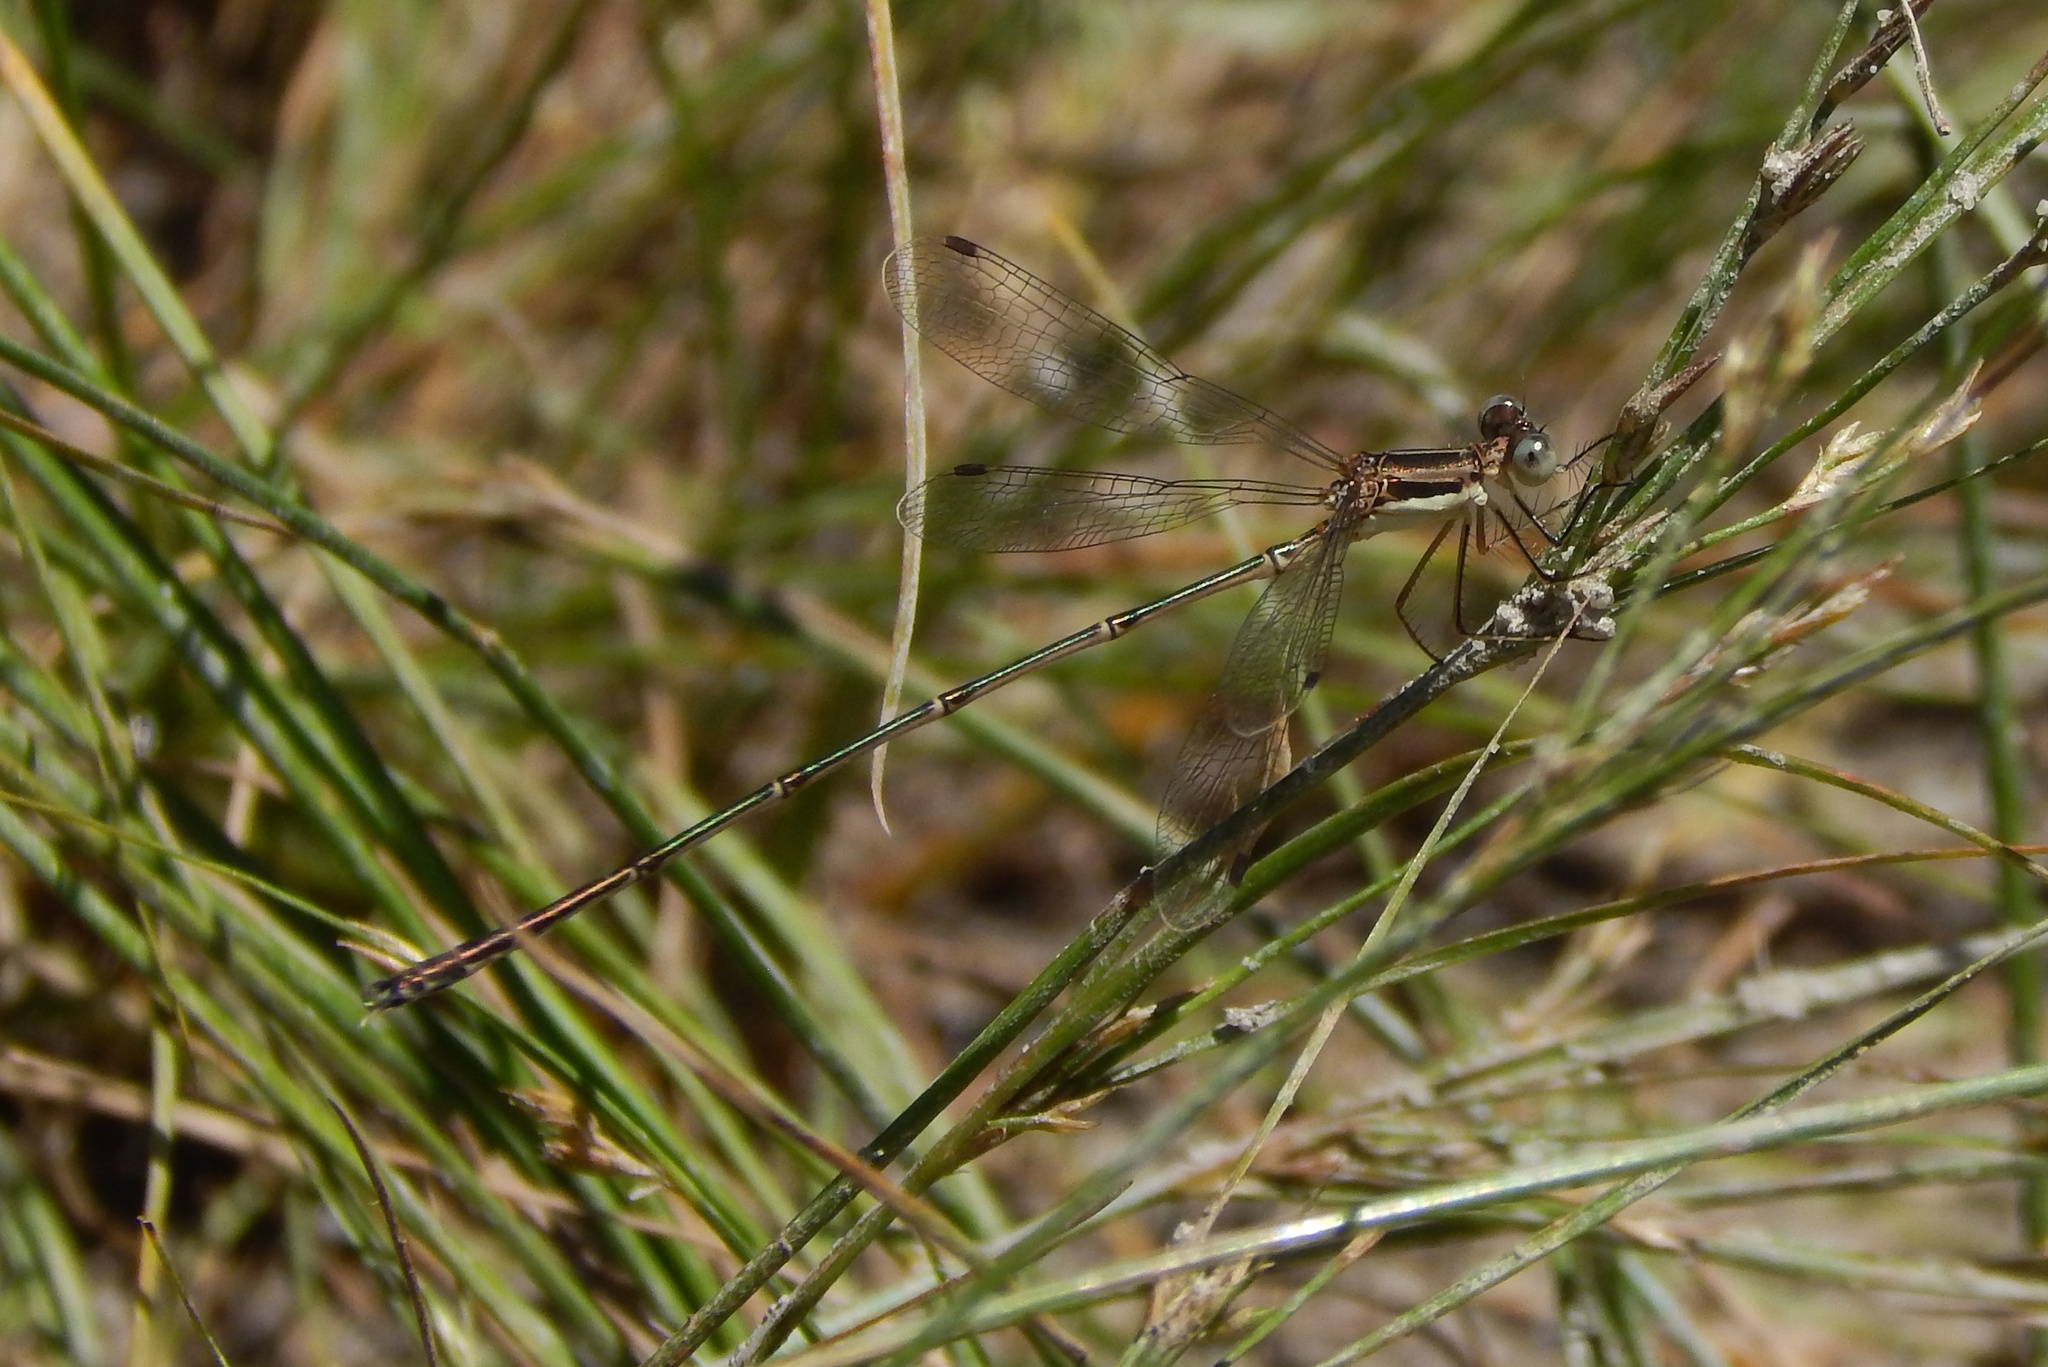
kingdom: Animalia
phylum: Arthropoda
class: Insecta
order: Odonata
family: Lestidae
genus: Lestes
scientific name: Lestes rectangularis
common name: Slender spreadwing
